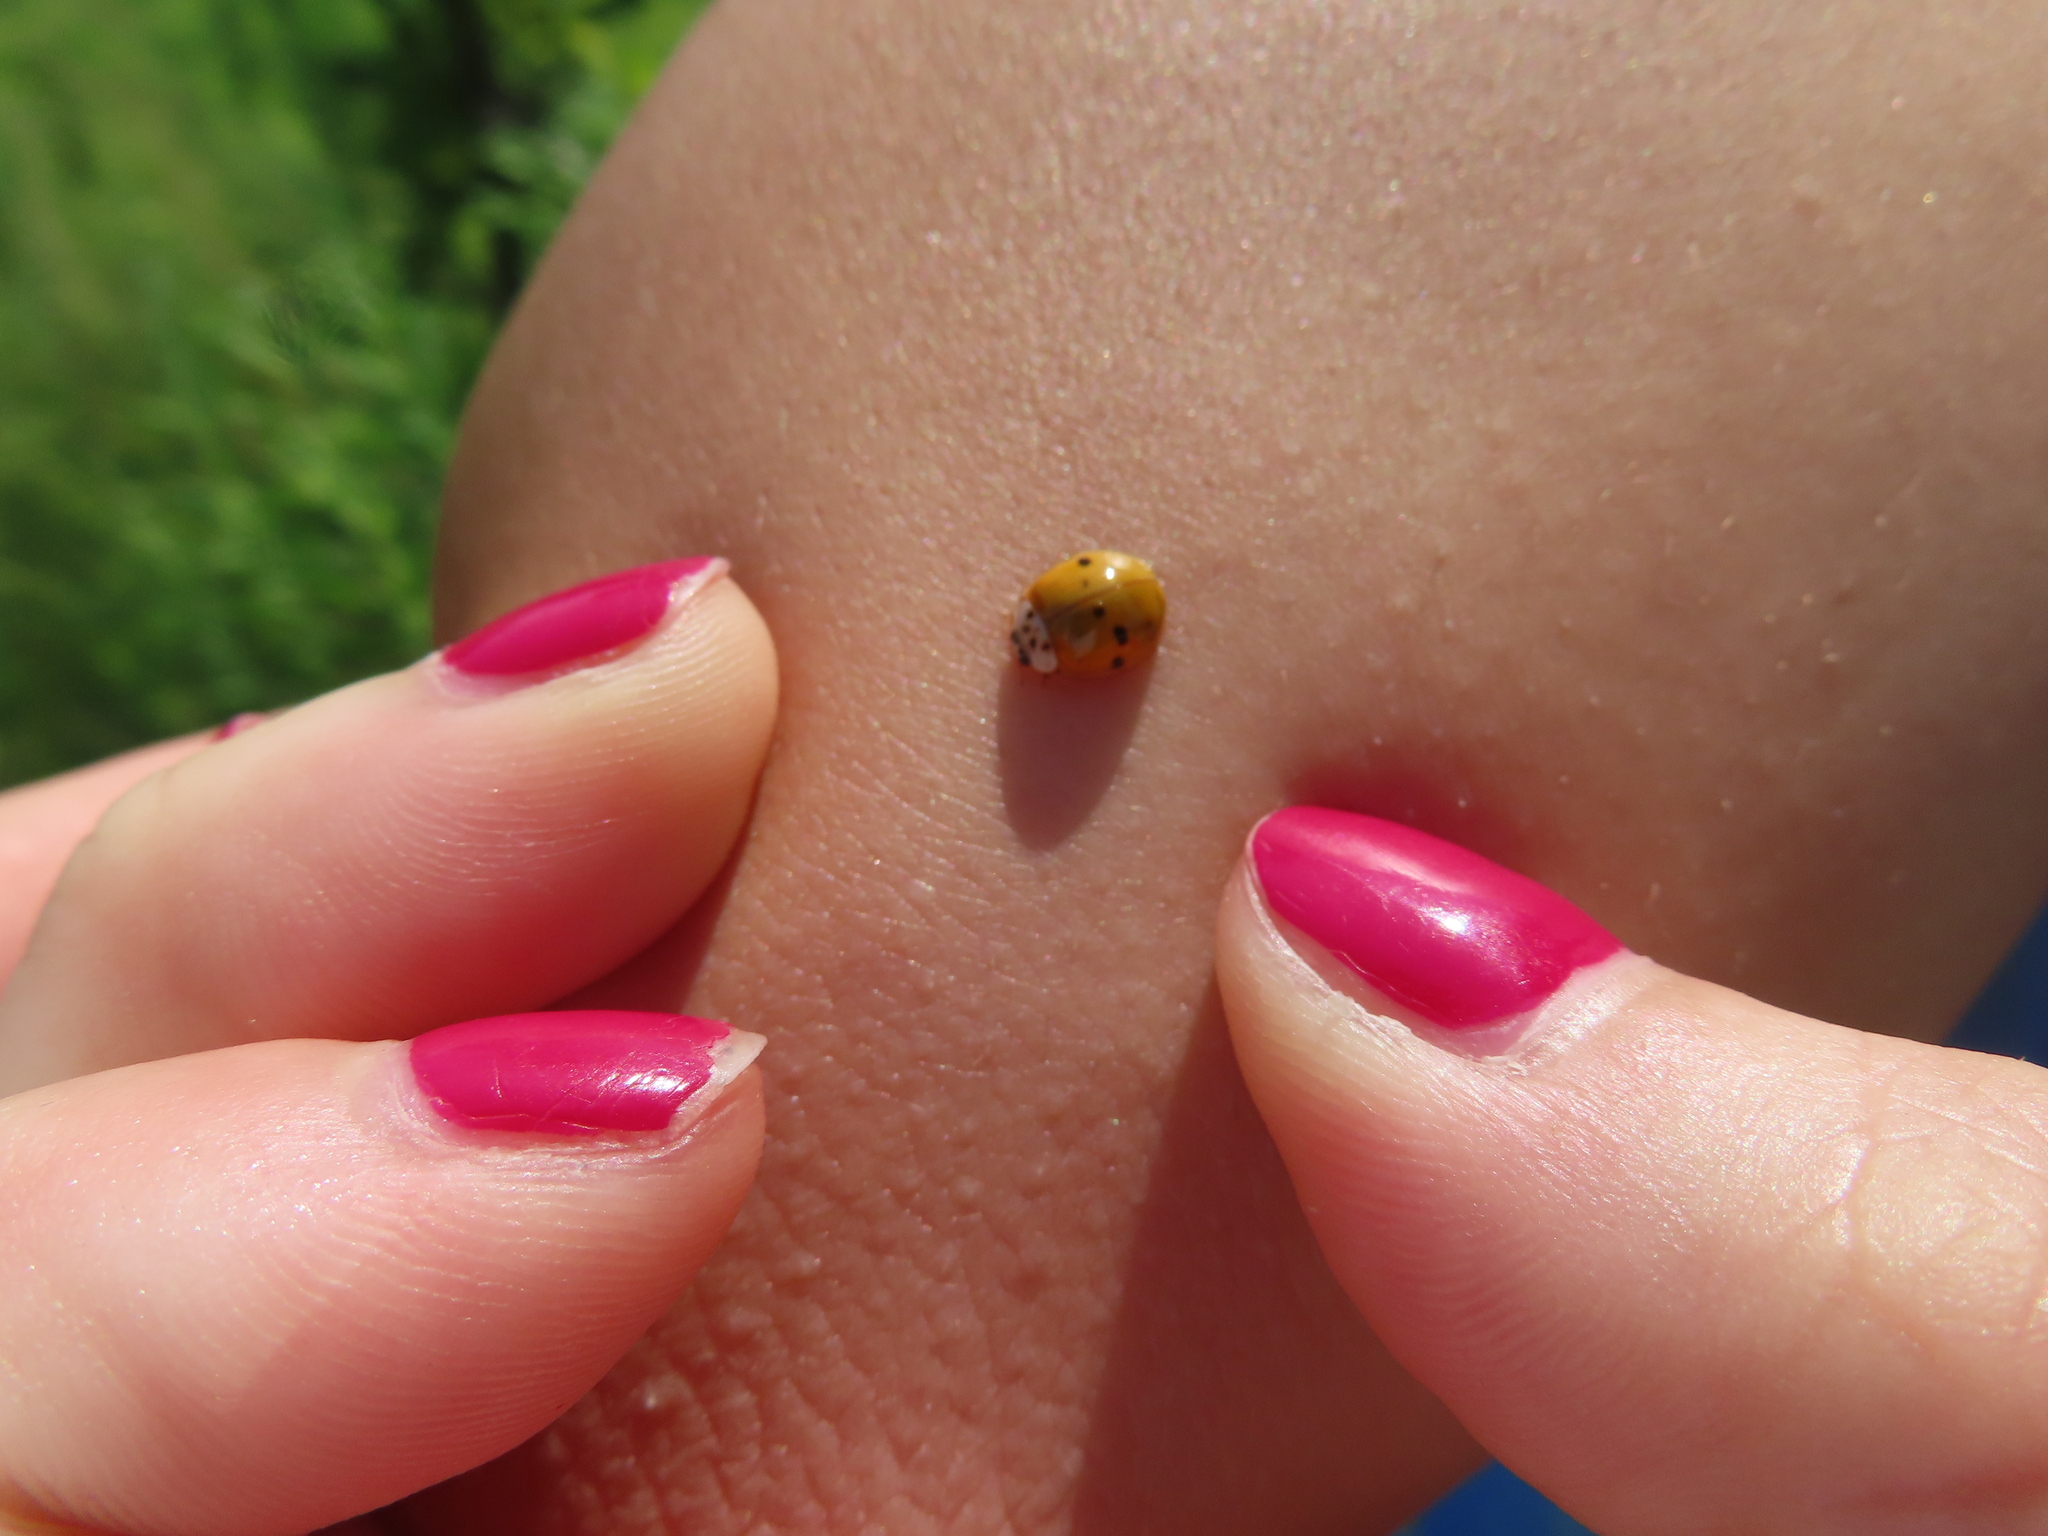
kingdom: Animalia
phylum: Arthropoda
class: Insecta
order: Coleoptera
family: Coccinellidae
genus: Harmonia
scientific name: Harmonia axyridis
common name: Harlequin ladybird
